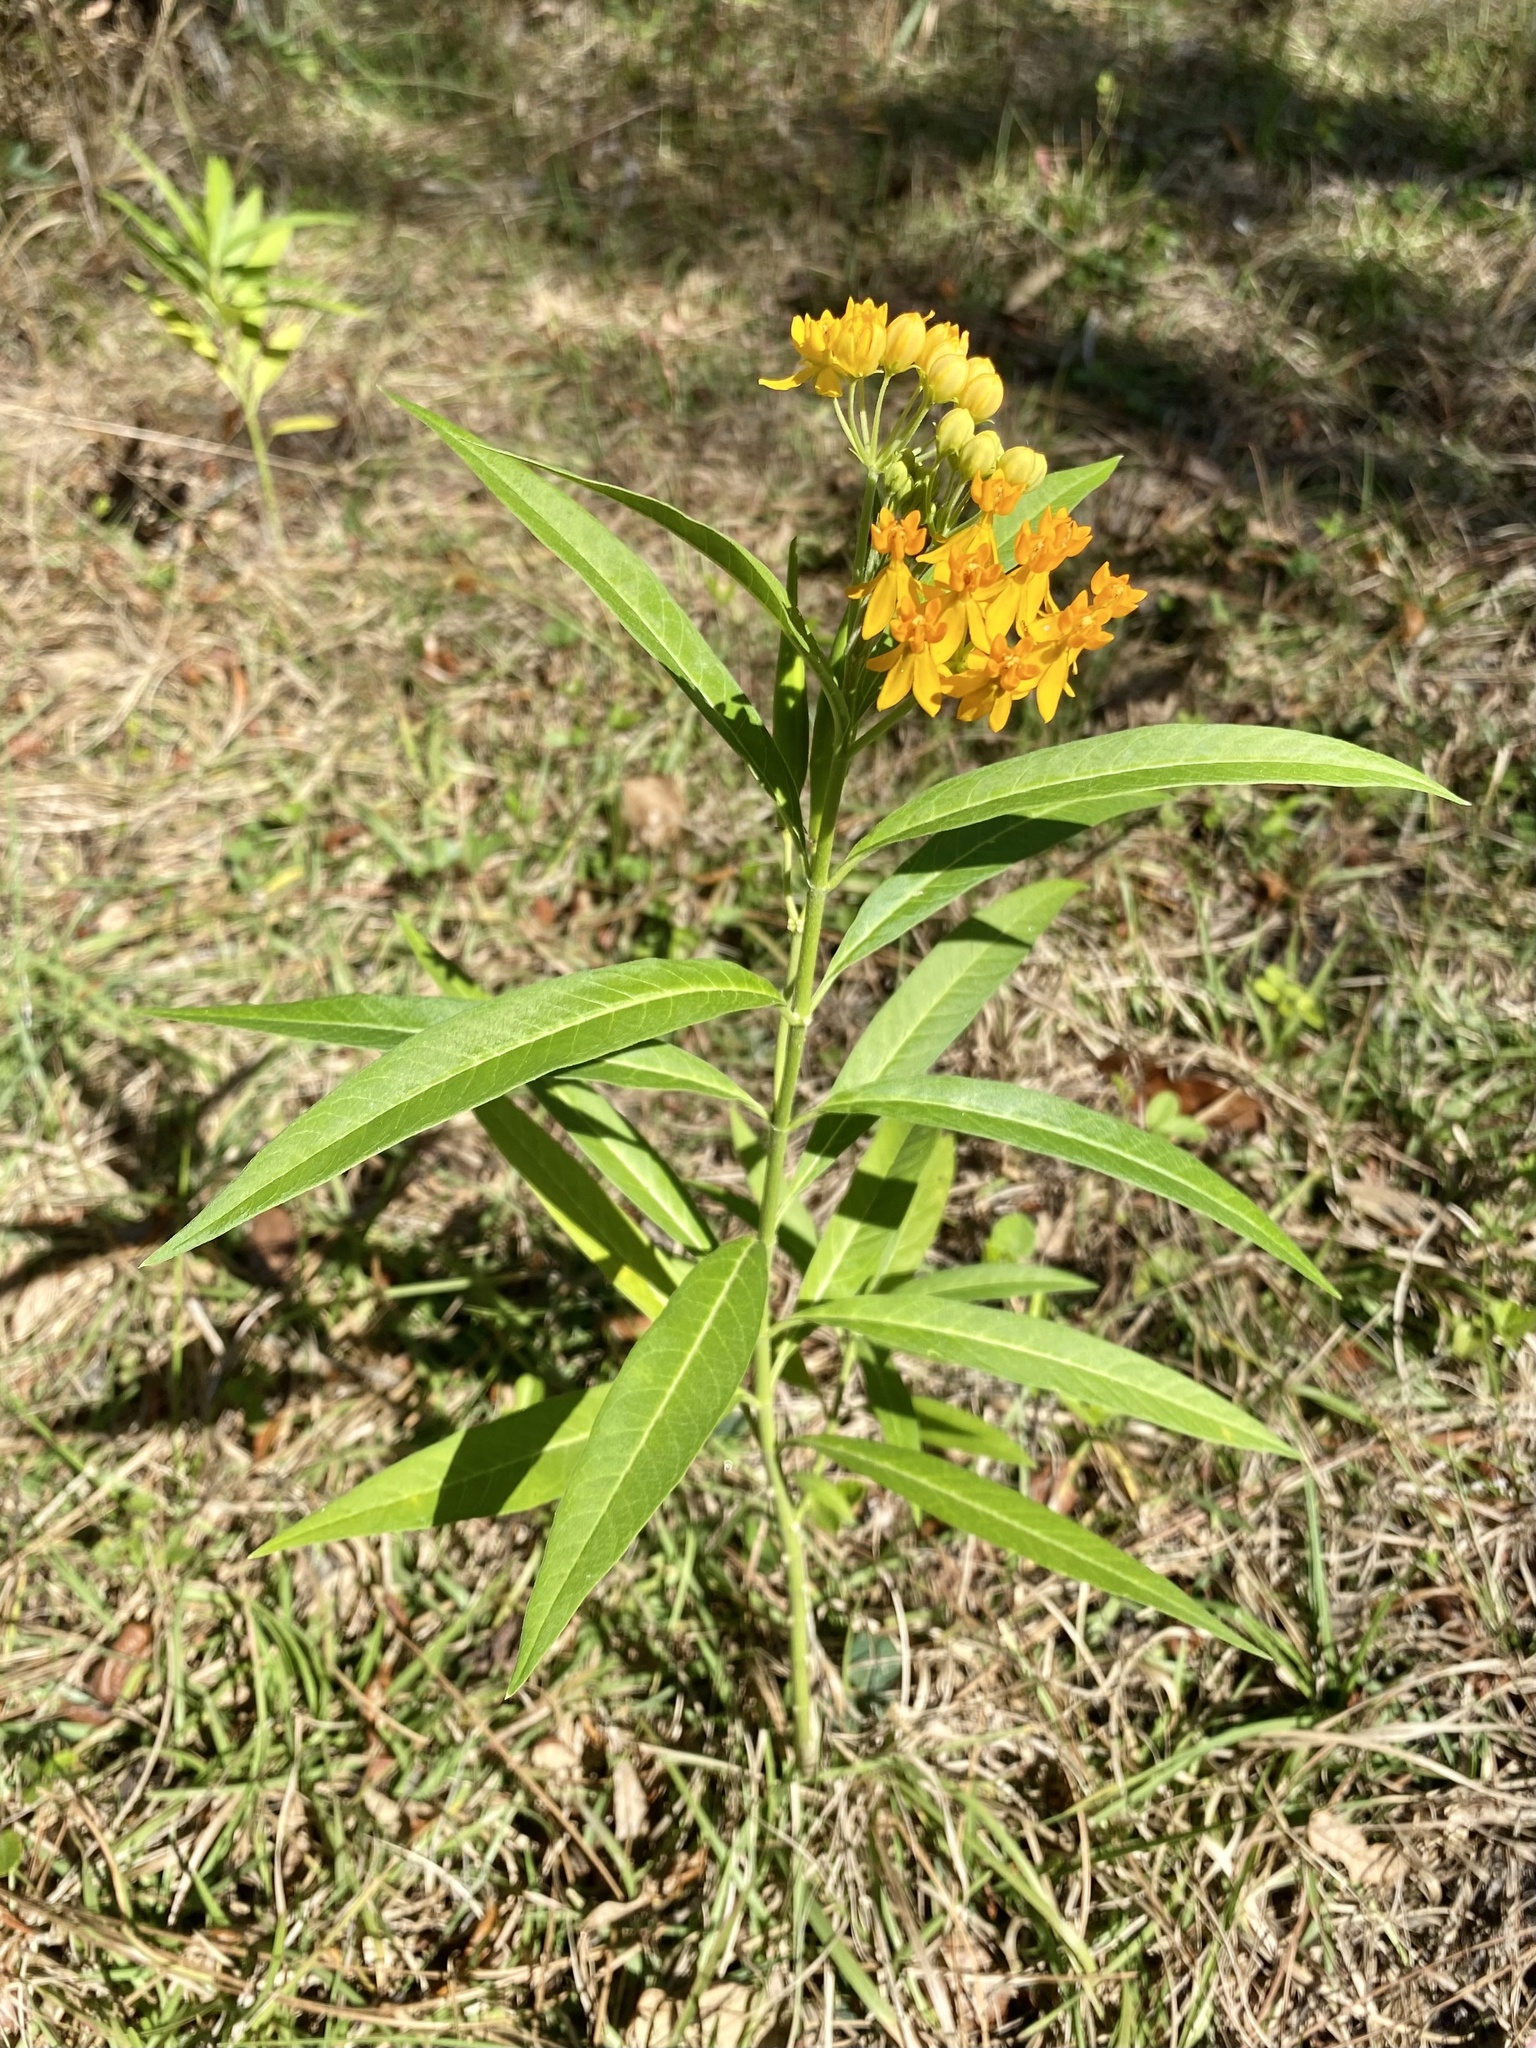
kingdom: Plantae
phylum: Tracheophyta
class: Magnoliopsida
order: Gentianales
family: Apocynaceae
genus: Asclepias
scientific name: Asclepias curassavica
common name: Bloodflower
